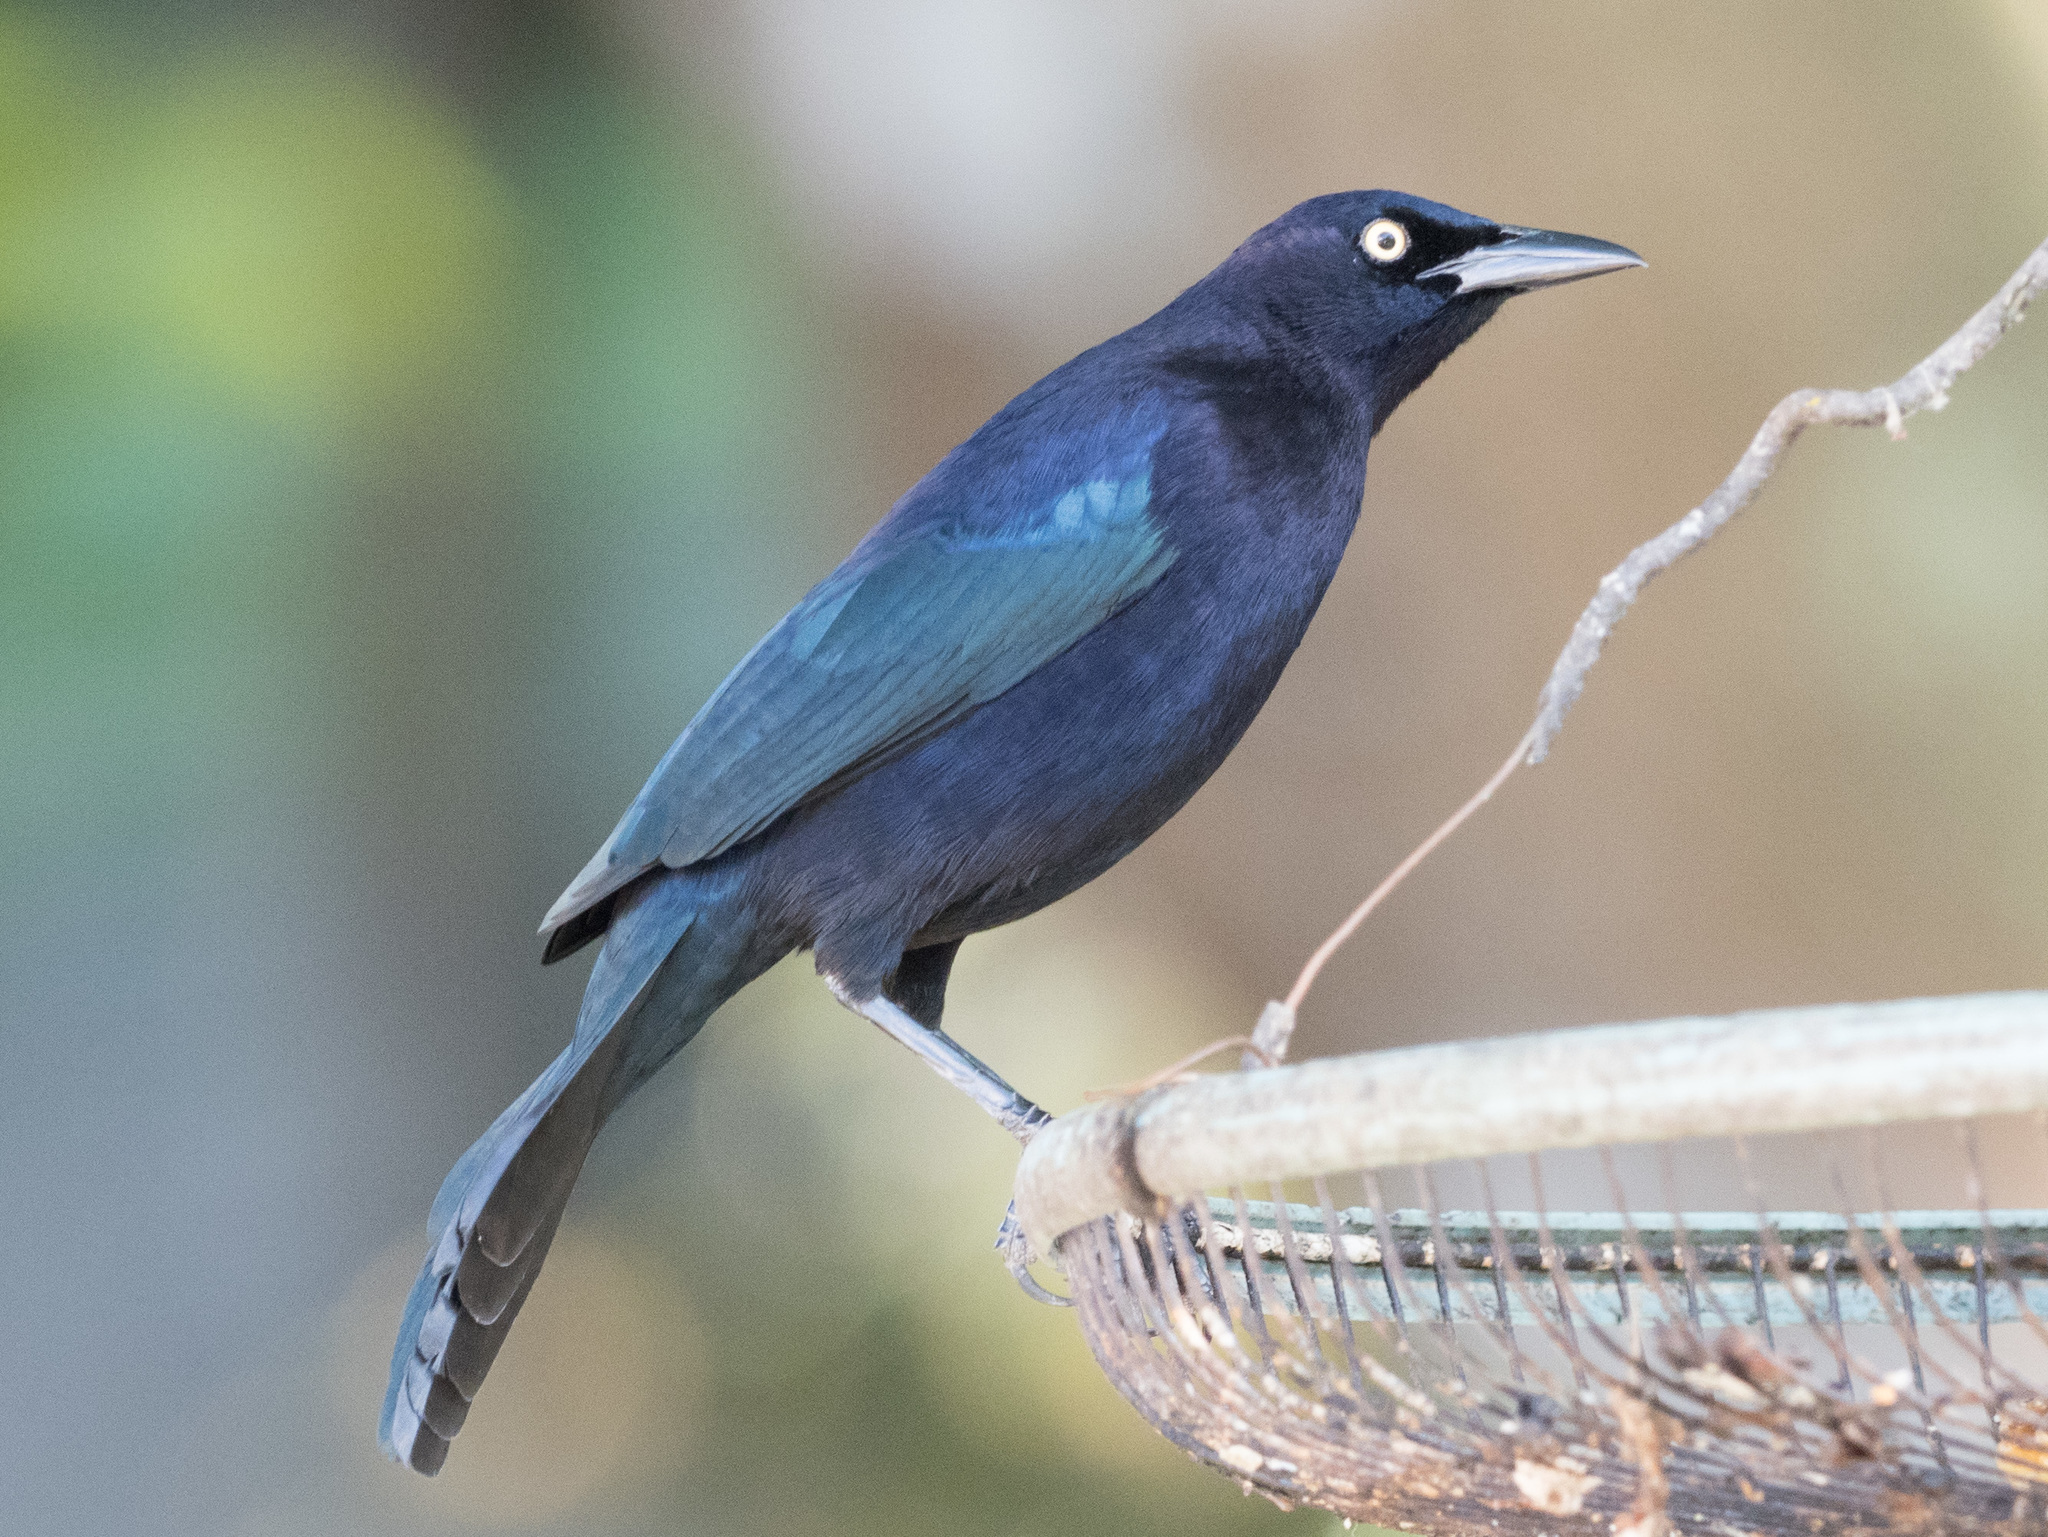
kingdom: Animalia
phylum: Chordata
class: Aves
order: Passeriformes
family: Icteridae
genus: Quiscalus
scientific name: Quiscalus lugubris
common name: Carib grackle
